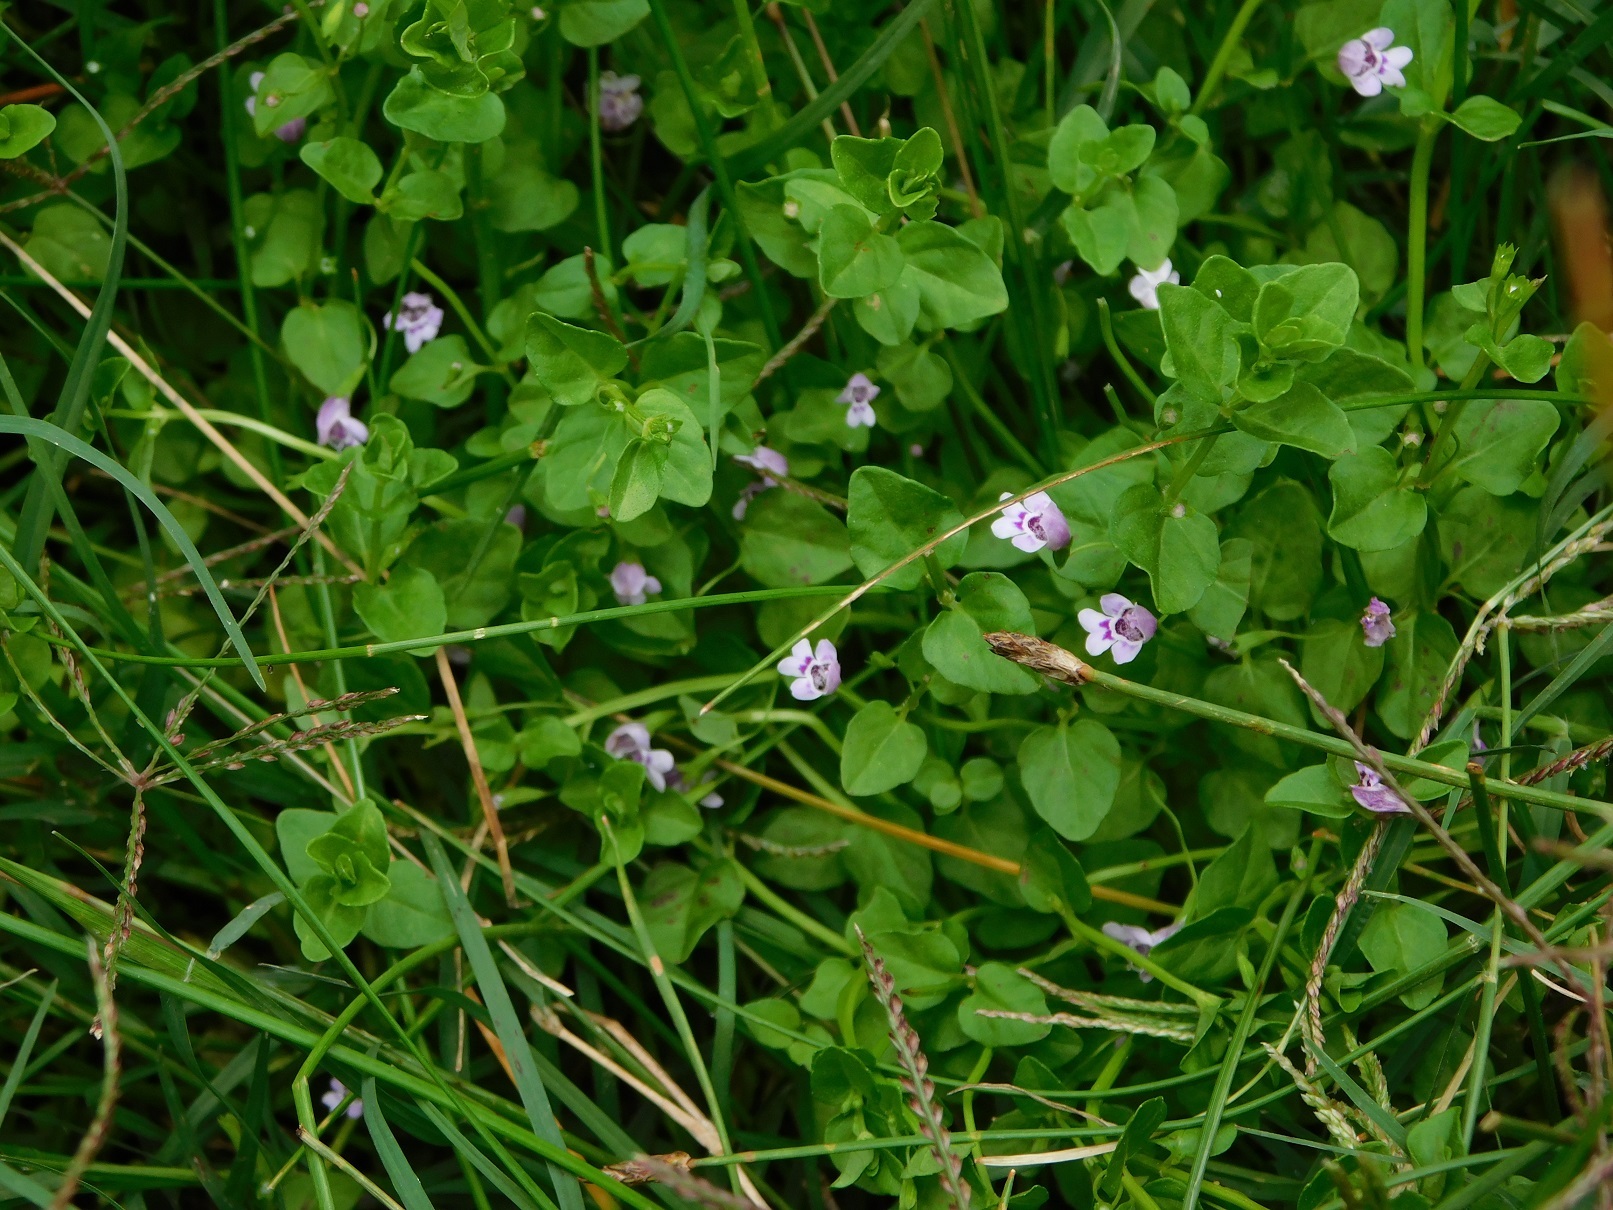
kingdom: Plantae
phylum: Tracheophyta
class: Magnoliopsida
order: Lamiales
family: Lamiaceae
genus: Clinopodium
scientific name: Clinopodium brownei
